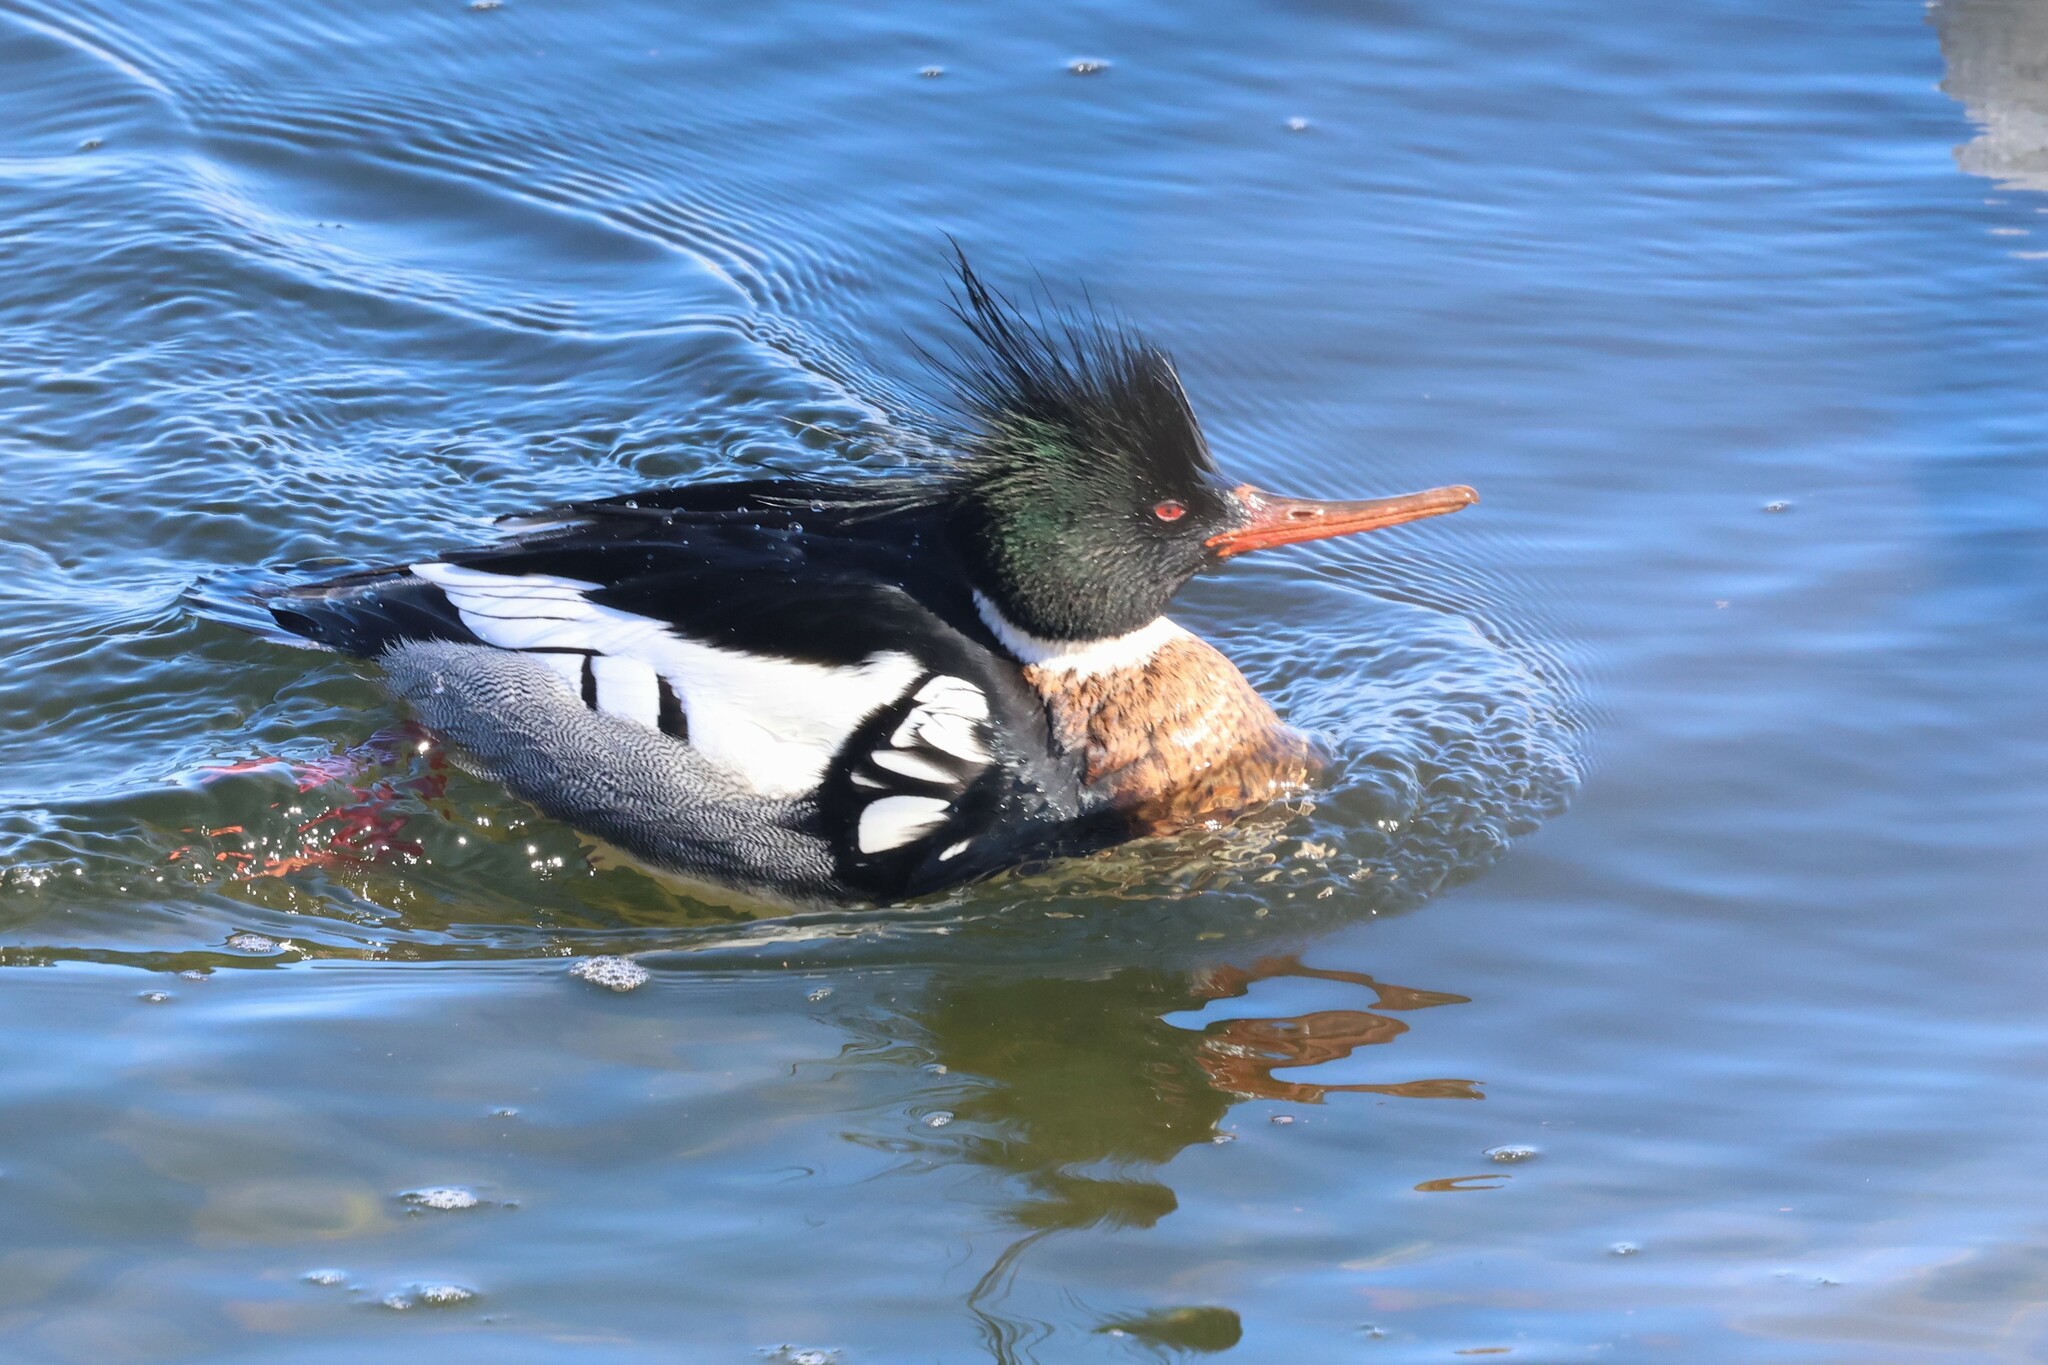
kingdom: Animalia
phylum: Chordata
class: Aves
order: Anseriformes
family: Anatidae
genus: Mergus
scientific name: Mergus serrator
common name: Red-breasted merganser
